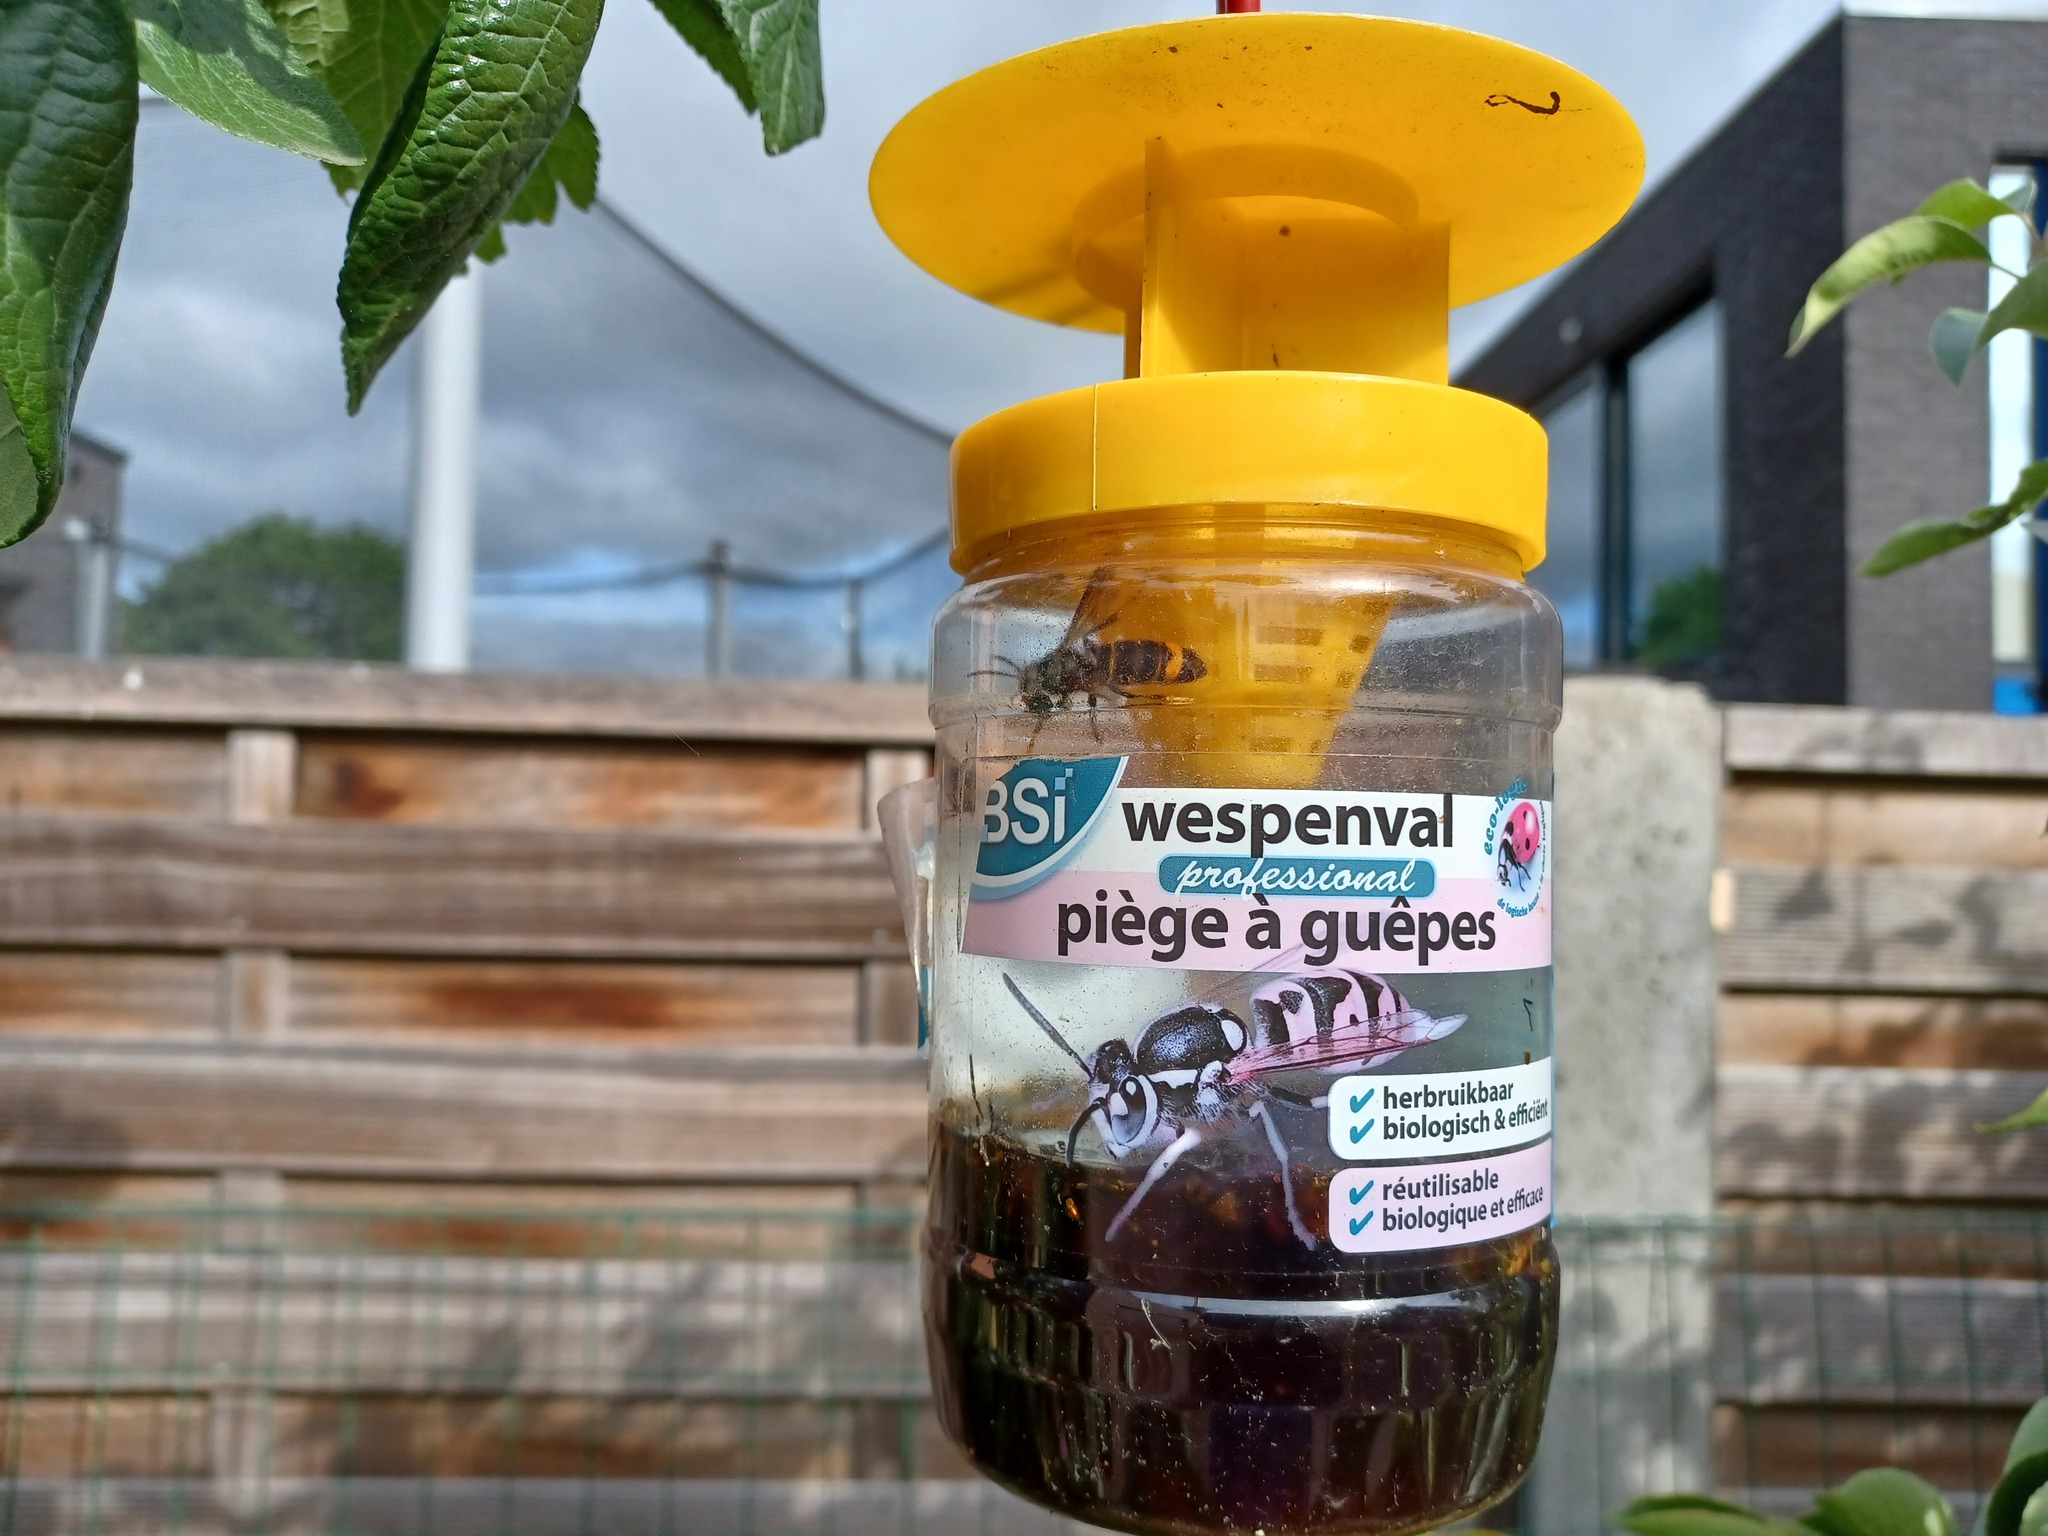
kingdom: Animalia
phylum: Arthropoda
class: Insecta
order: Hymenoptera
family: Vespidae
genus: Vespa
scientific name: Vespa velutina
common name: Asian hornet
